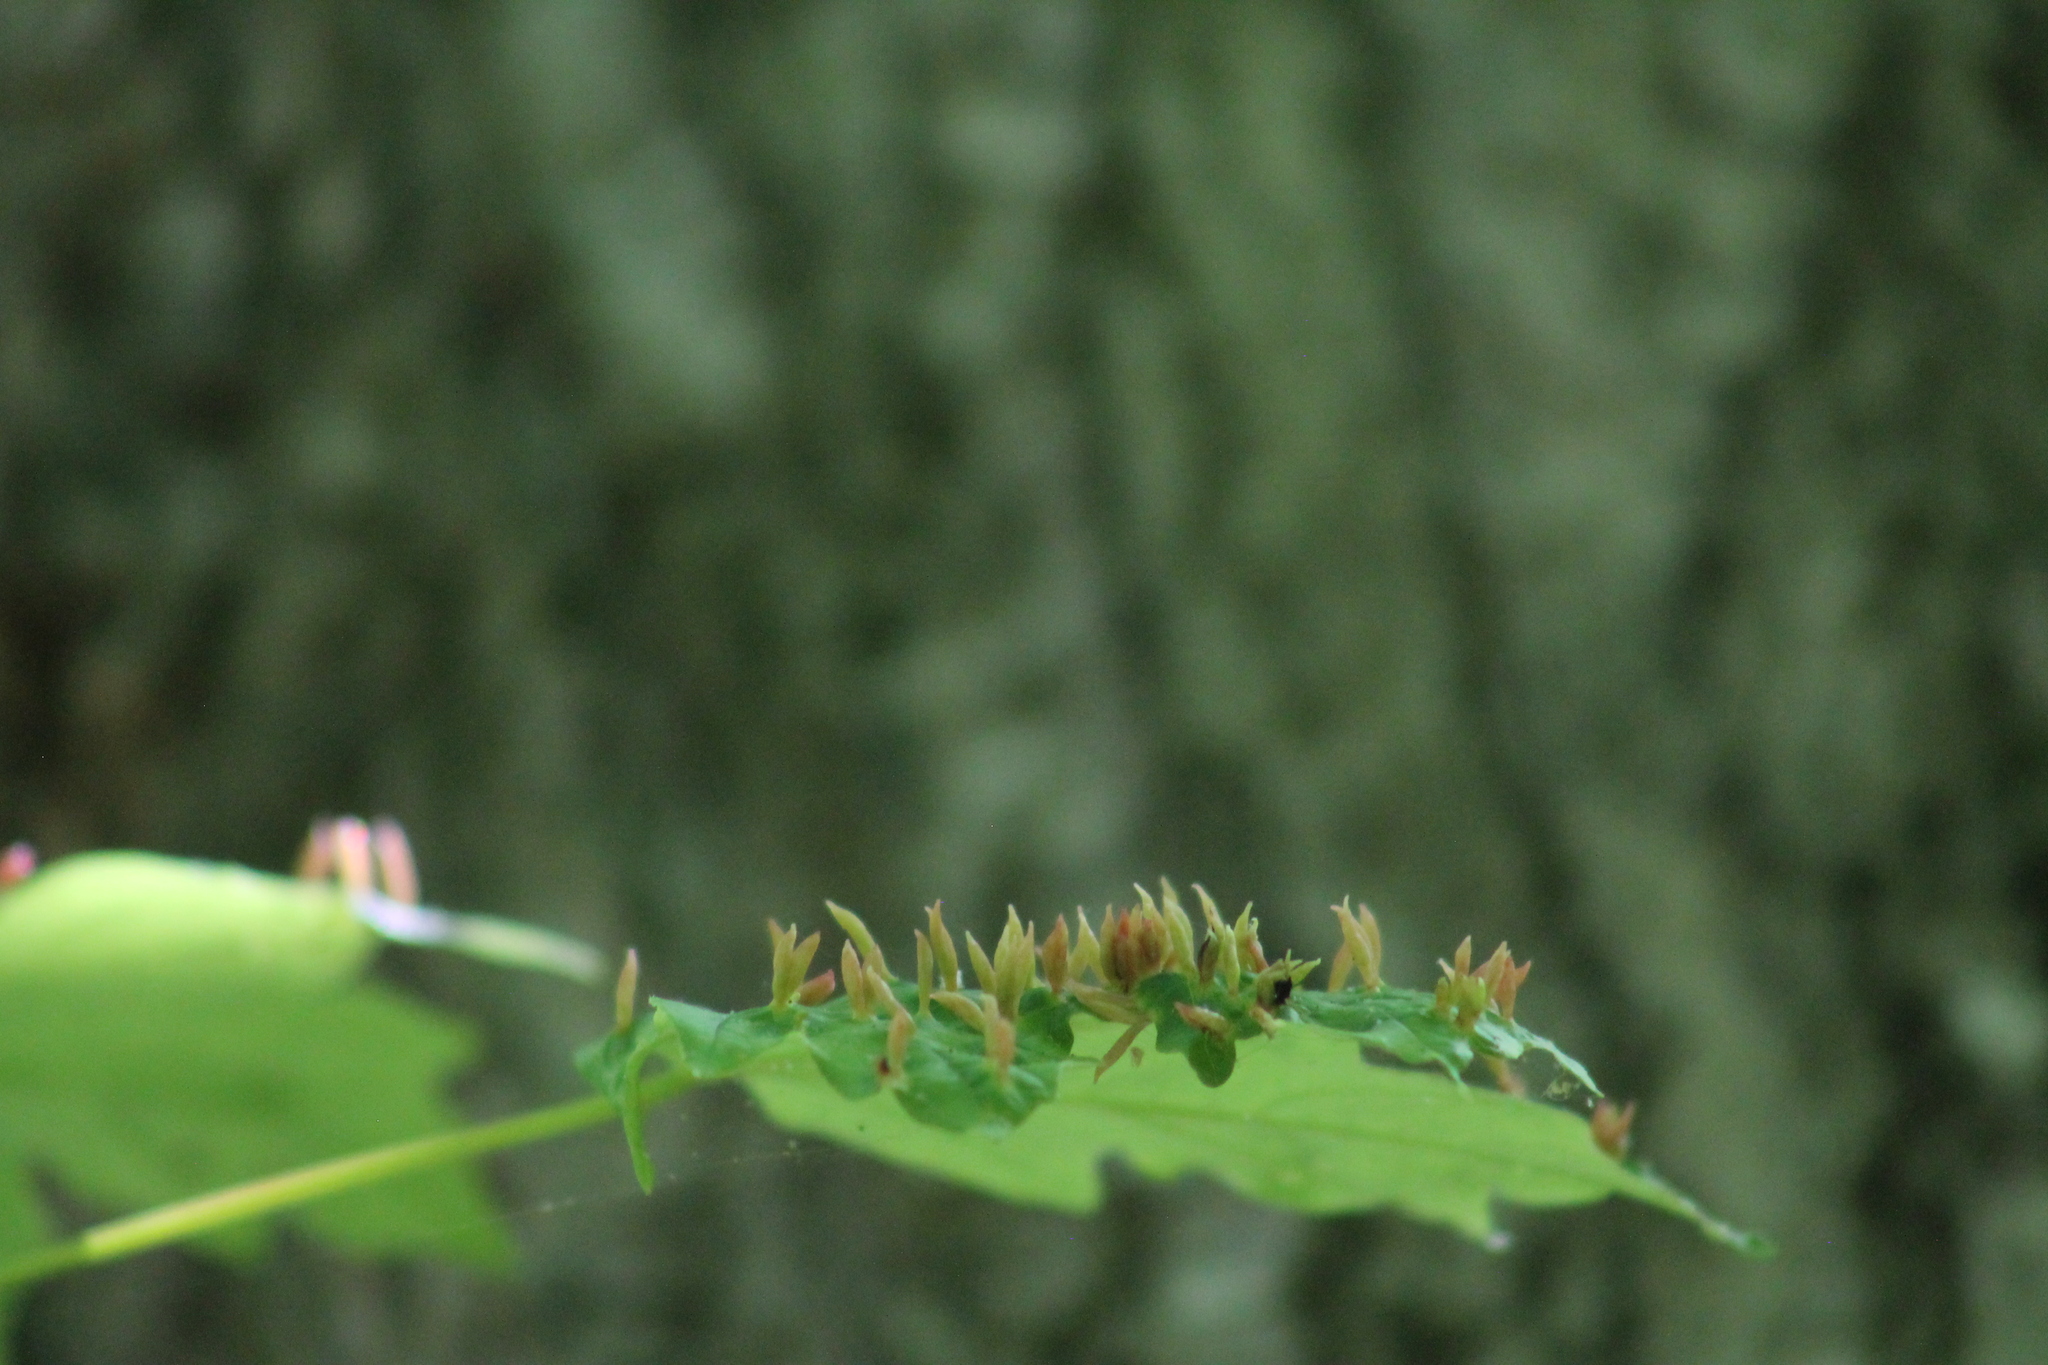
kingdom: Animalia
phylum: Arthropoda
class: Arachnida
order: Trombidiformes
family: Eriophyidae
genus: Vasates
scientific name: Vasates aceriscrumena
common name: Maple spindle gall mite
